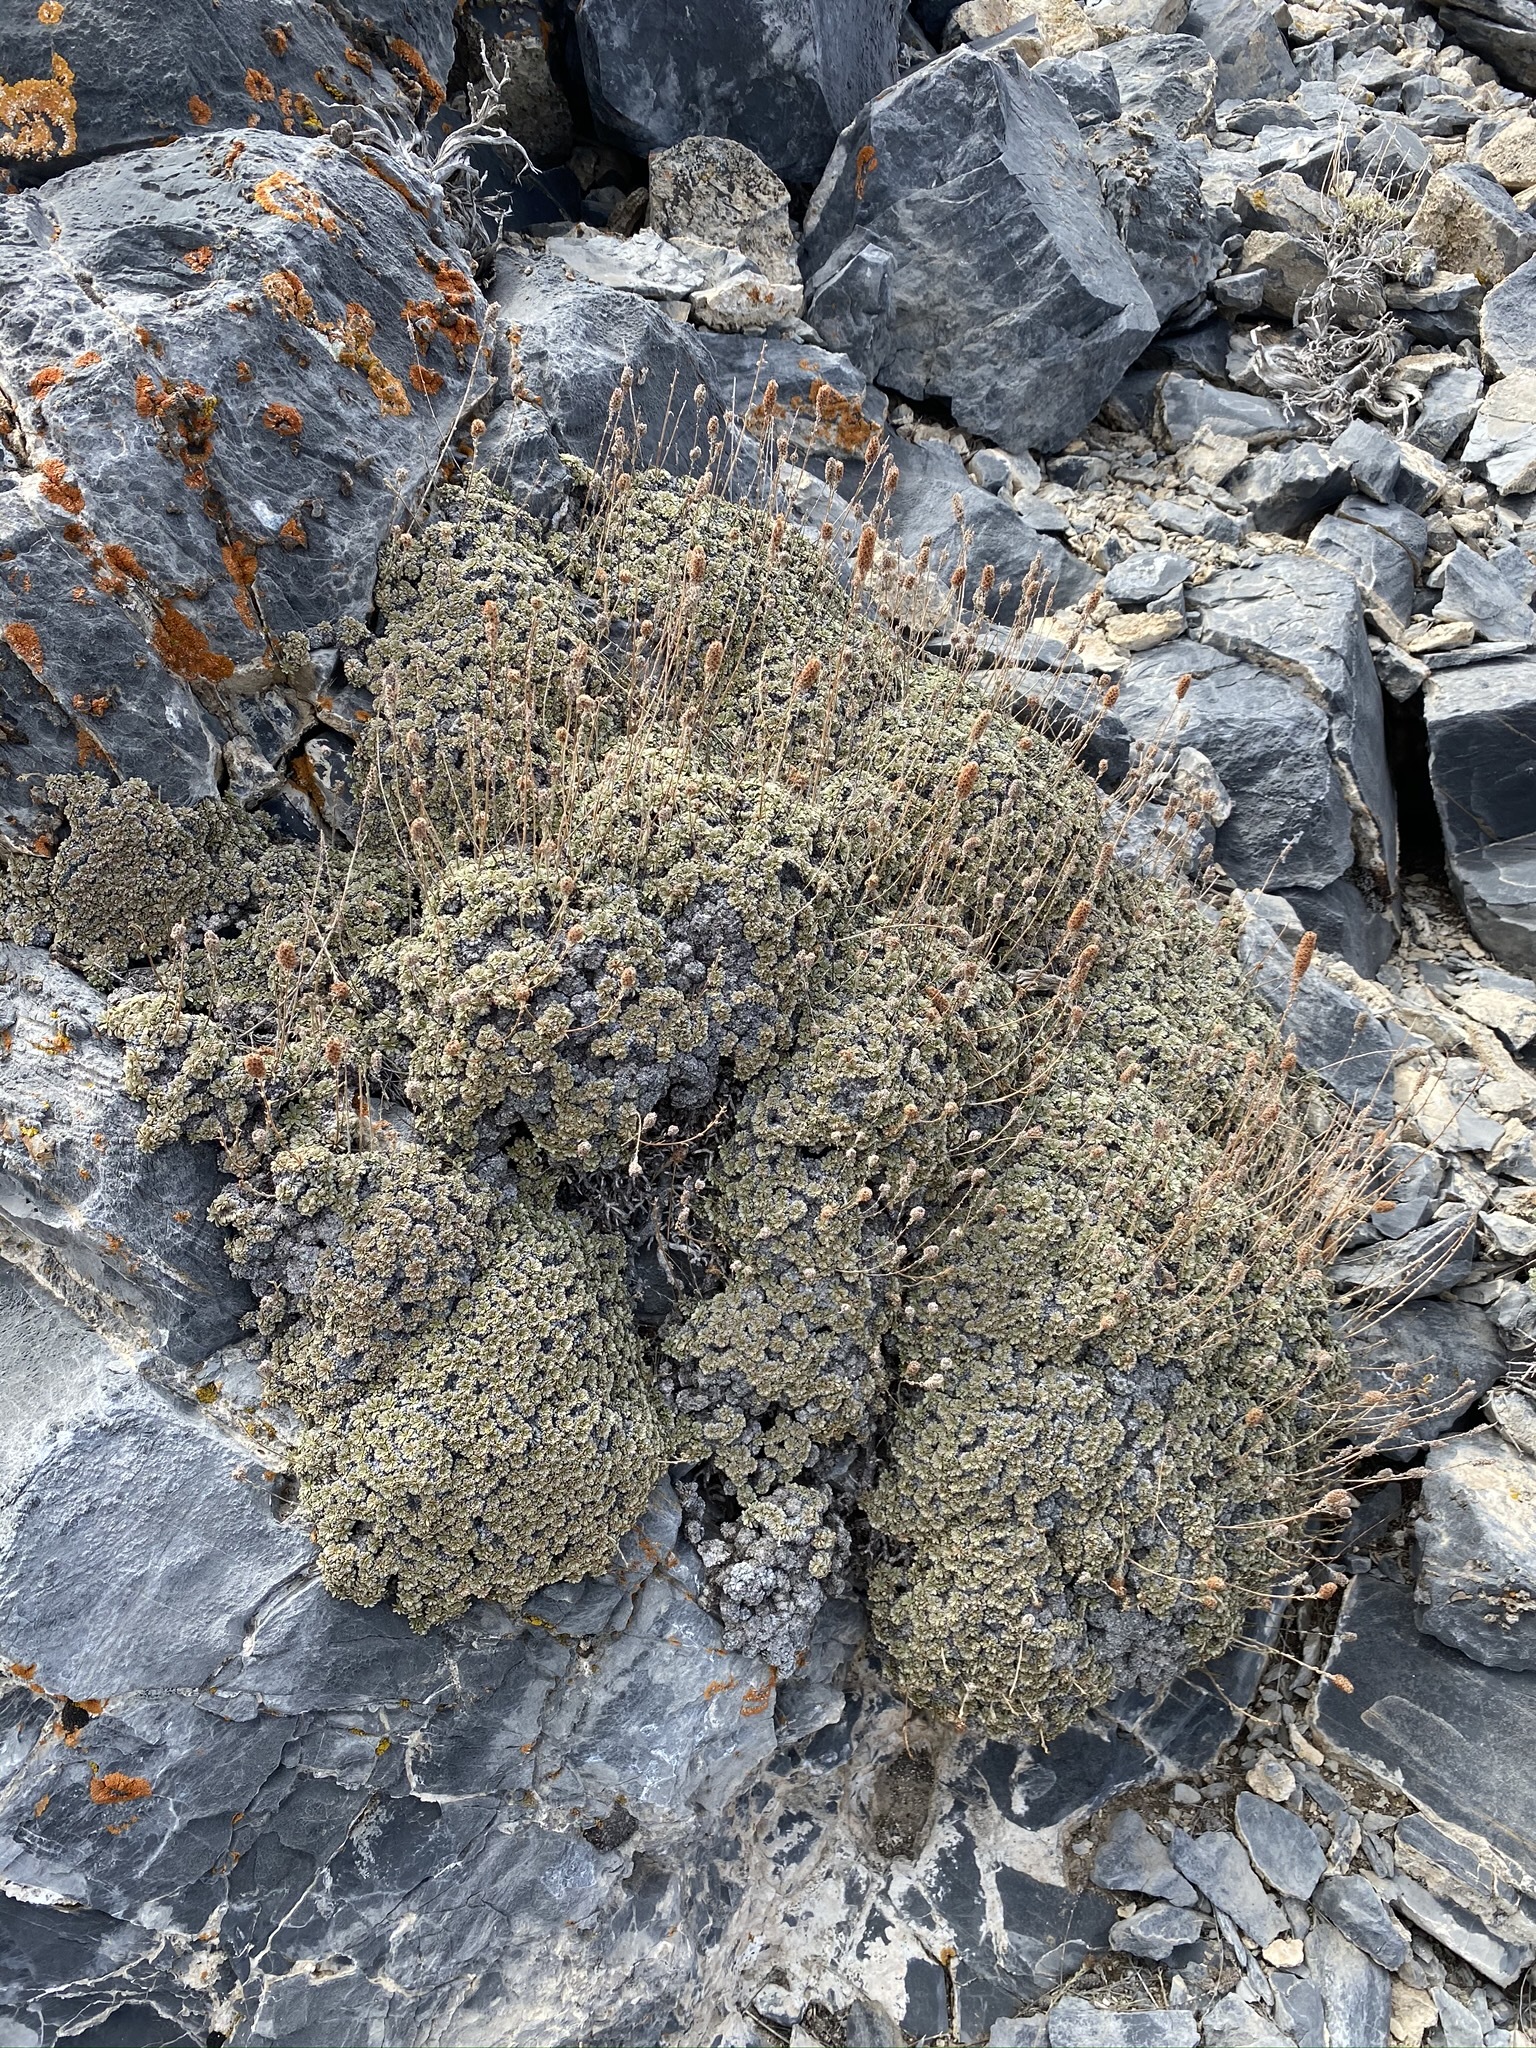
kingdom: Plantae
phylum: Tracheophyta
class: Magnoliopsida
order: Rosales
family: Rosaceae
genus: Petrophytum
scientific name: Petrophytum caespitosum
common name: Mat rockspirea
